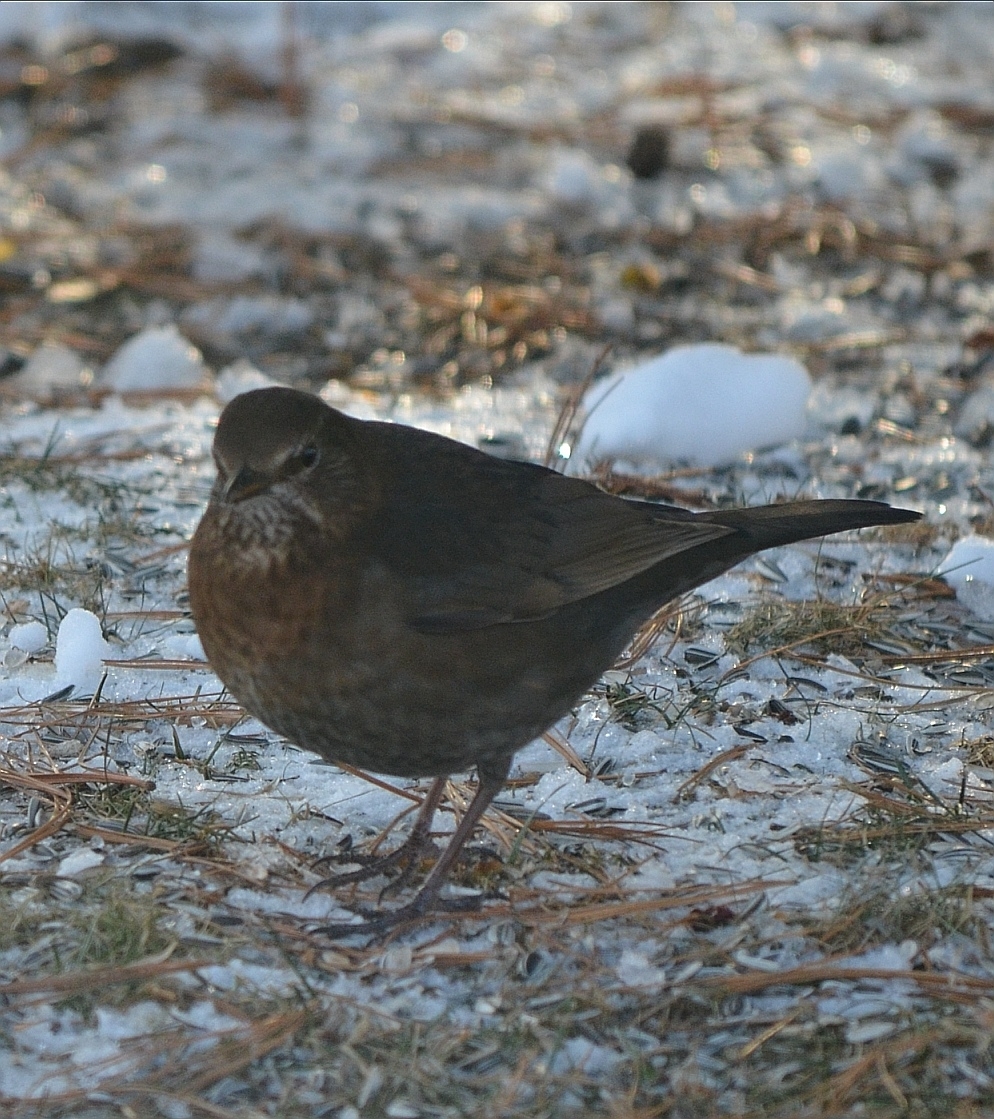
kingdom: Animalia
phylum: Chordata
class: Aves
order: Passeriformes
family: Turdidae
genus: Turdus
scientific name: Turdus merula
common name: Common blackbird
